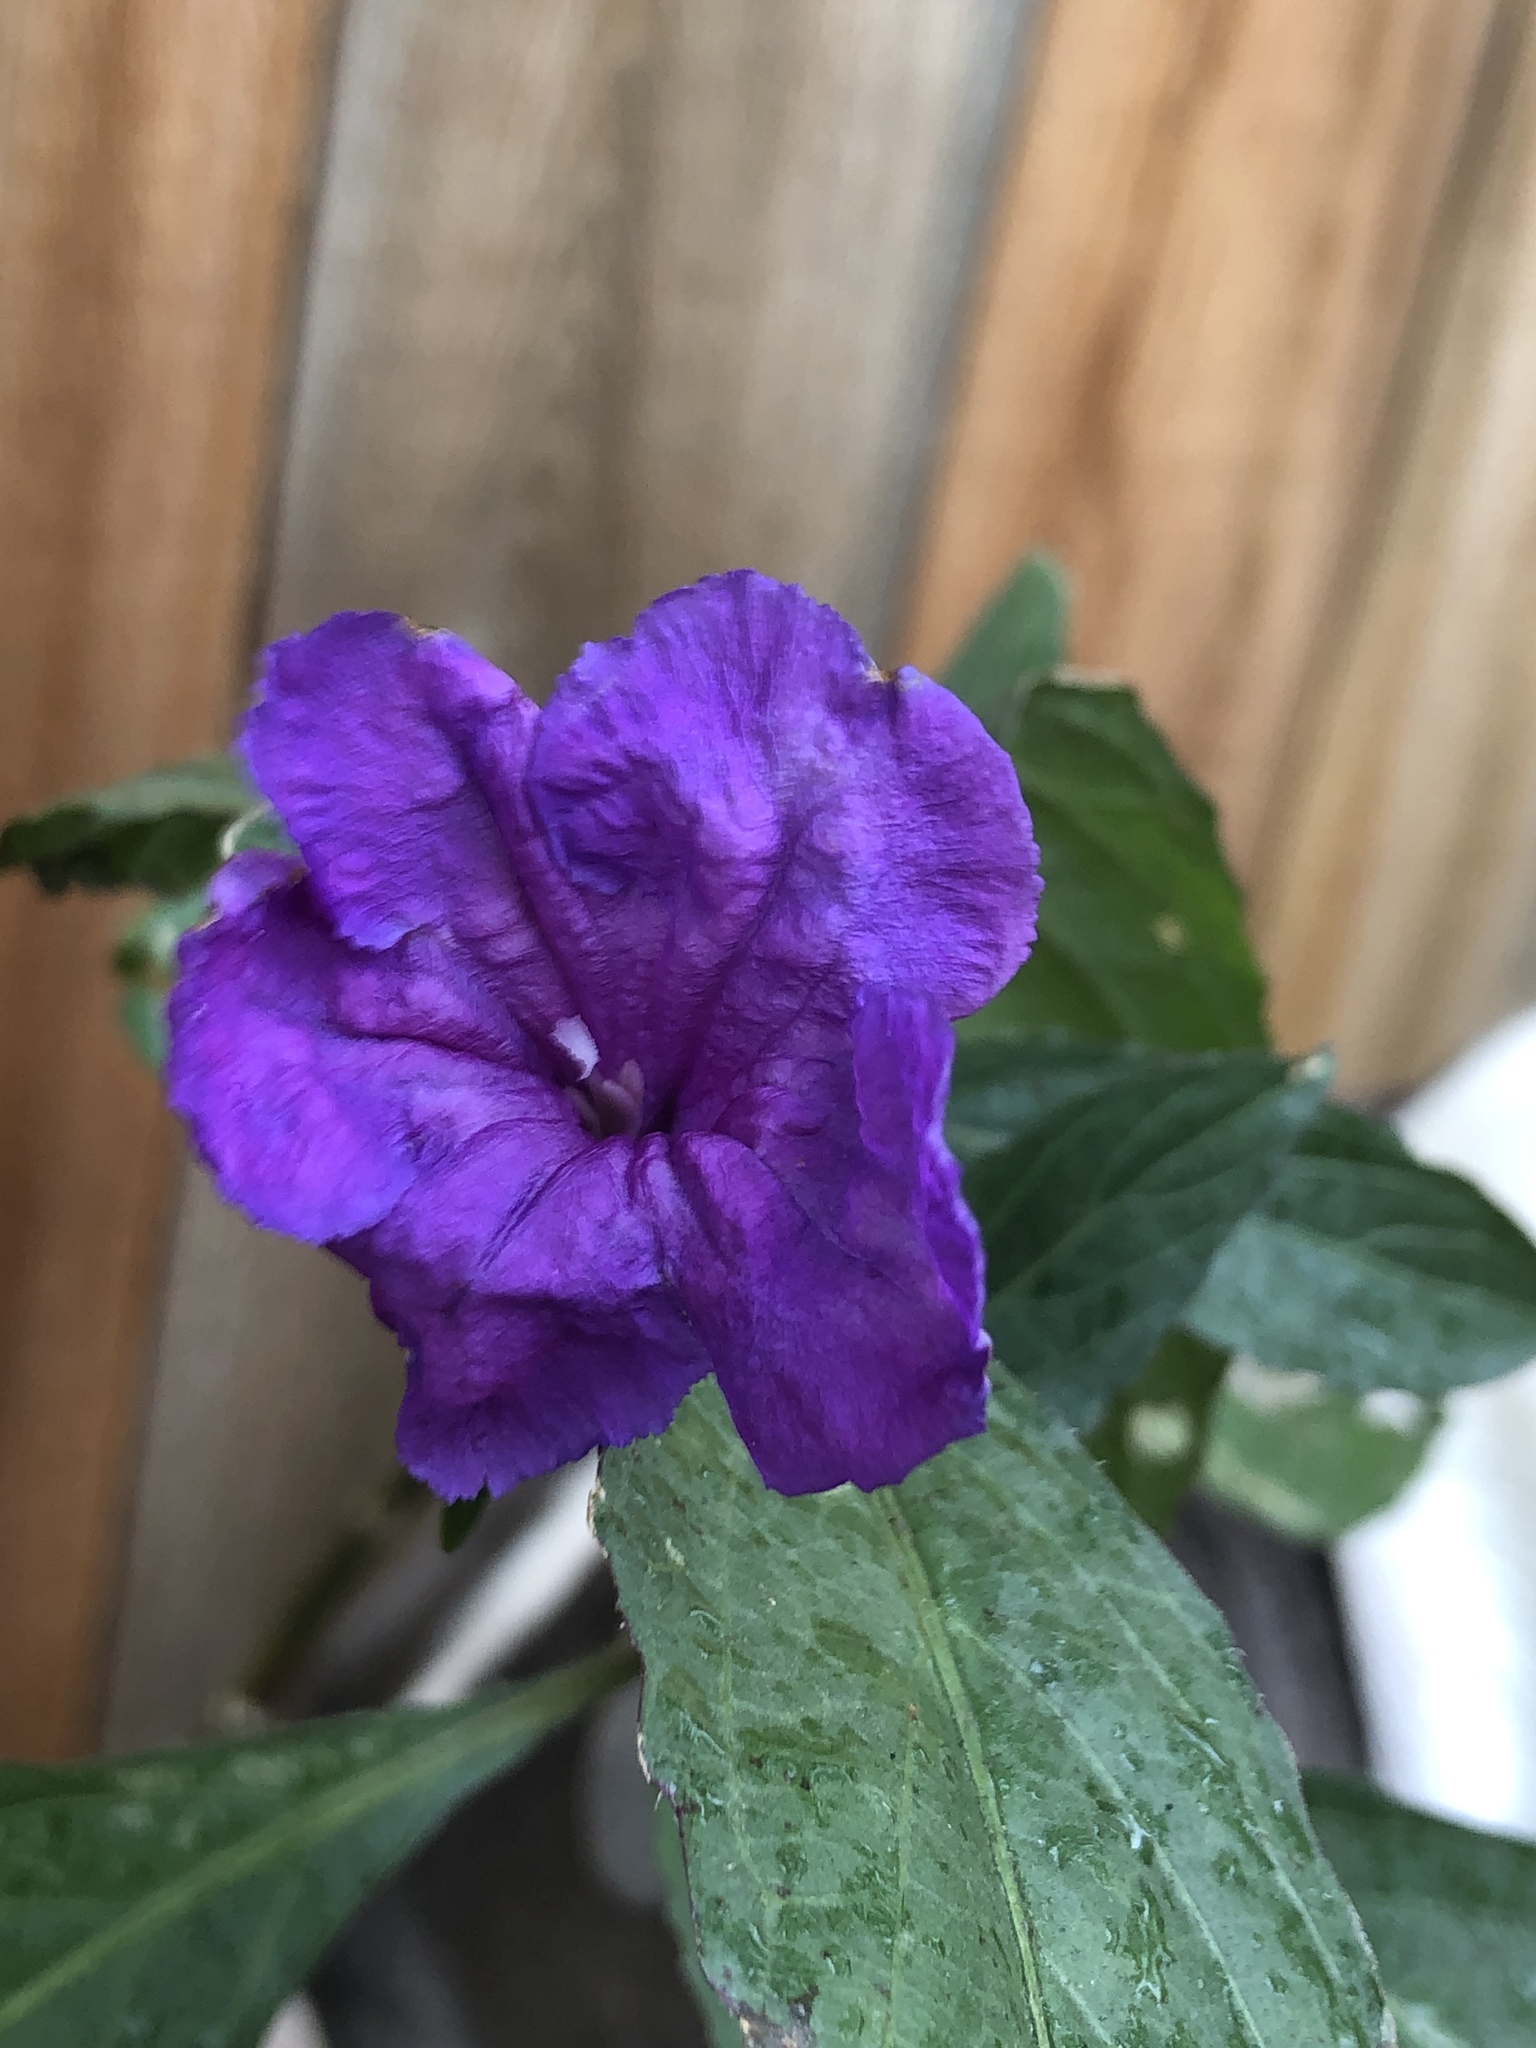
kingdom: Plantae
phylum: Tracheophyta
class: Magnoliopsida
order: Lamiales
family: Acanthaceae
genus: Ruellia
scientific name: Ruellia simplex
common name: Softseed wild petunia
